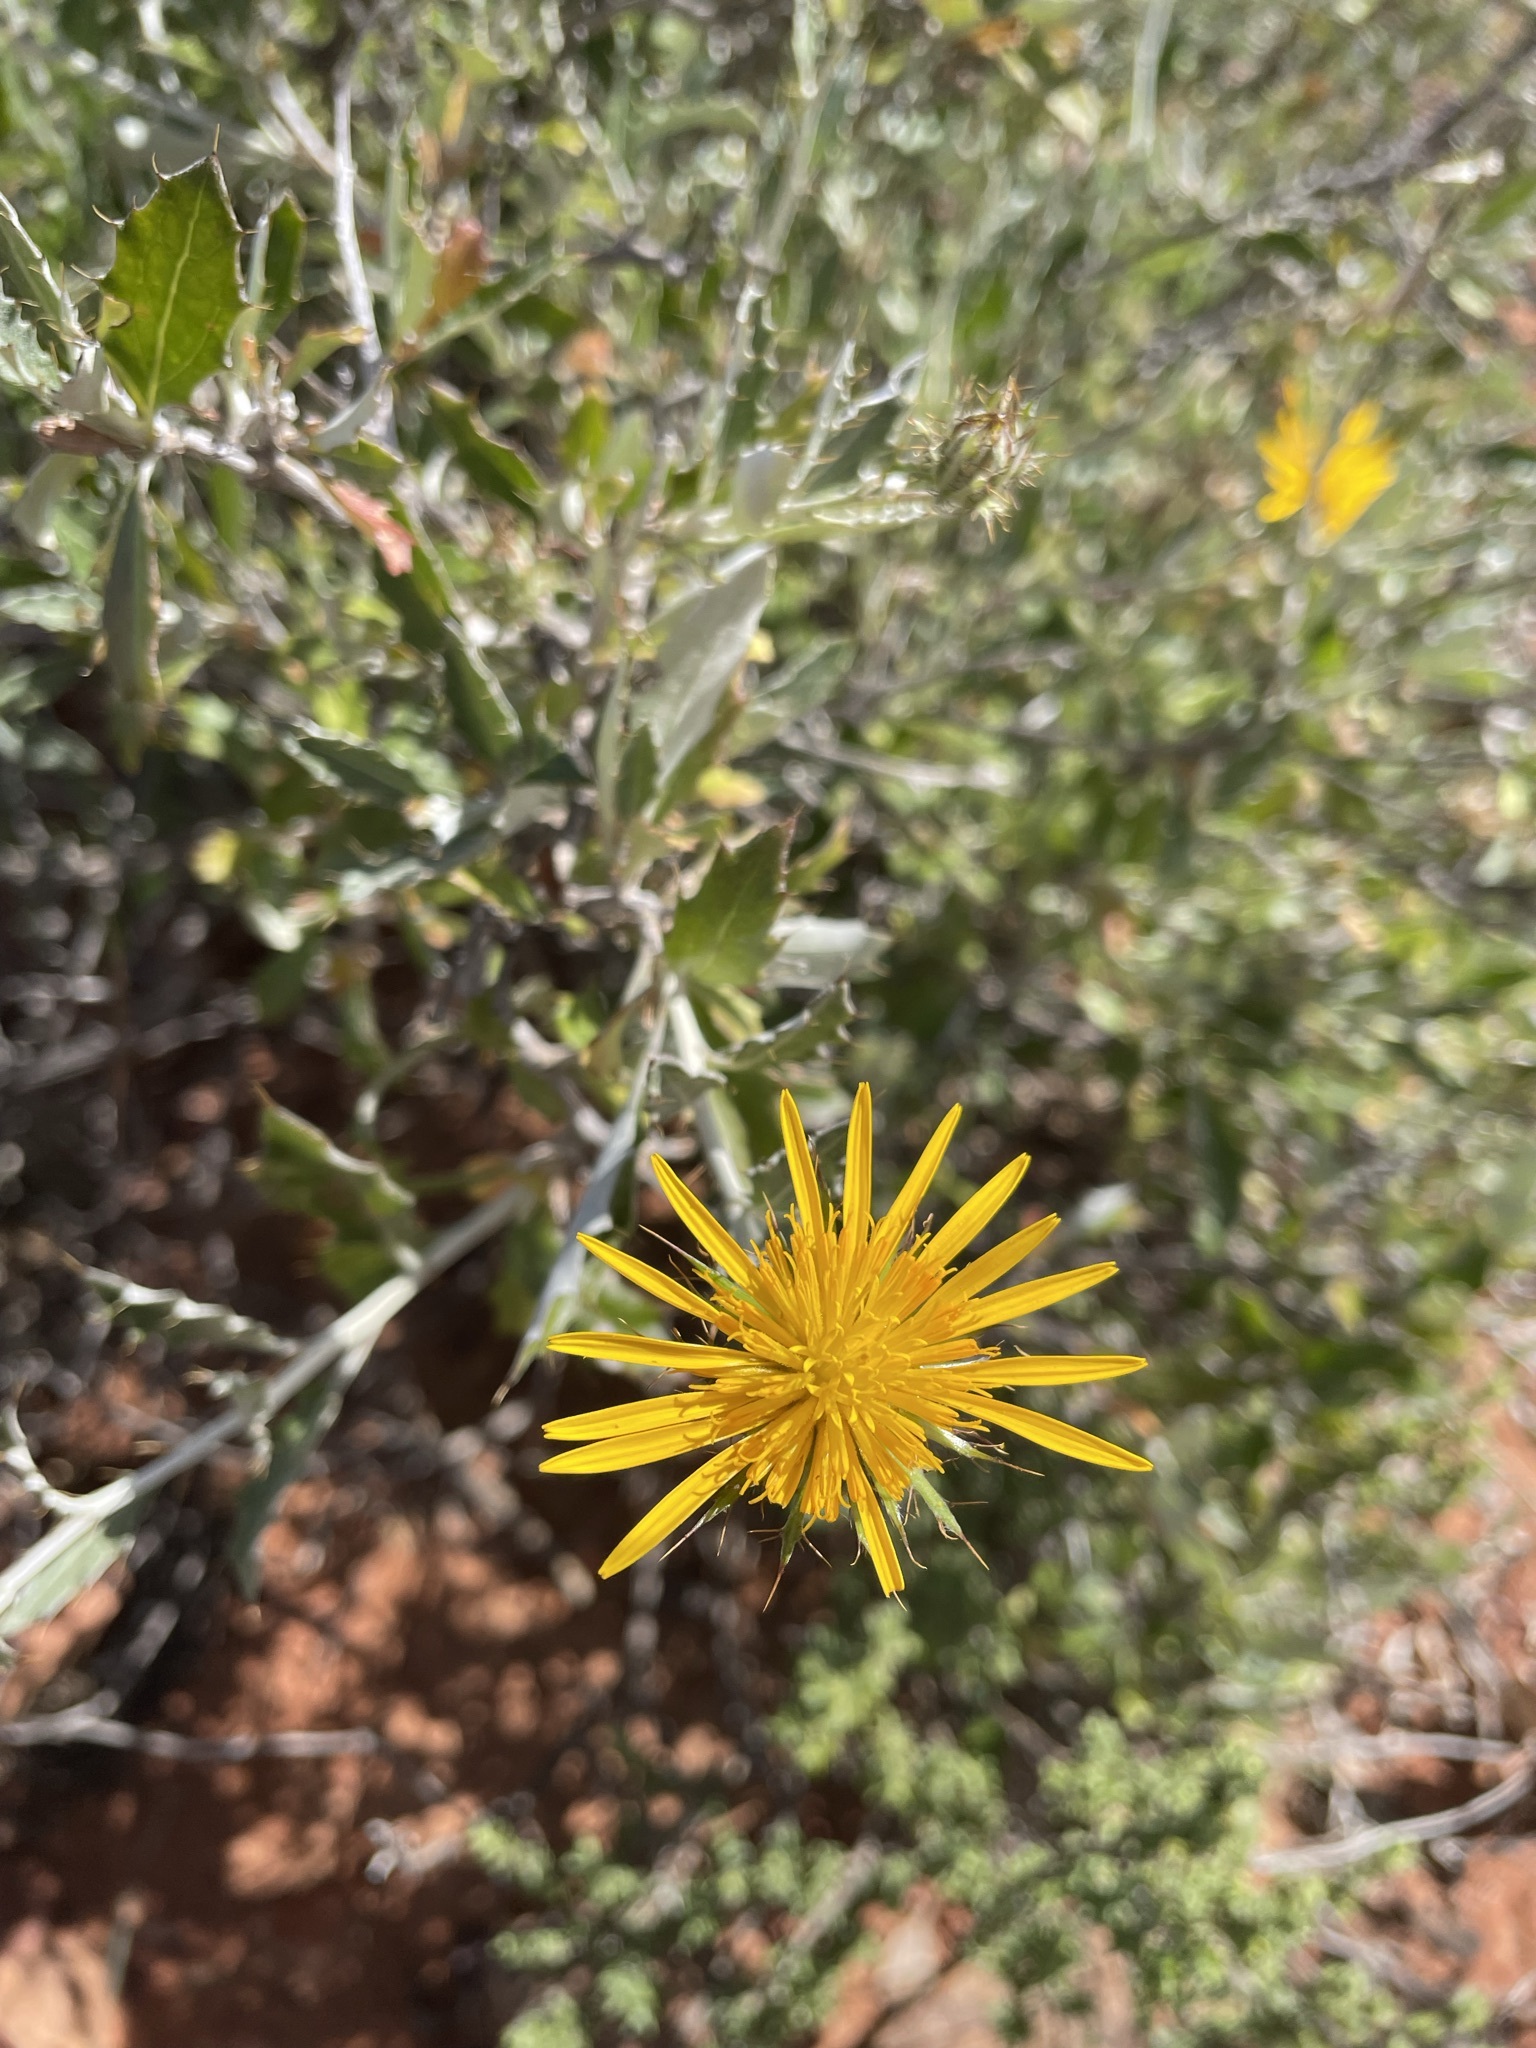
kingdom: Plantae
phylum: Tracheophyta
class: Magnoliopsida
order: Asterales
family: Asteraceae
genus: Berkheya
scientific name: Berkheya fruticosa
